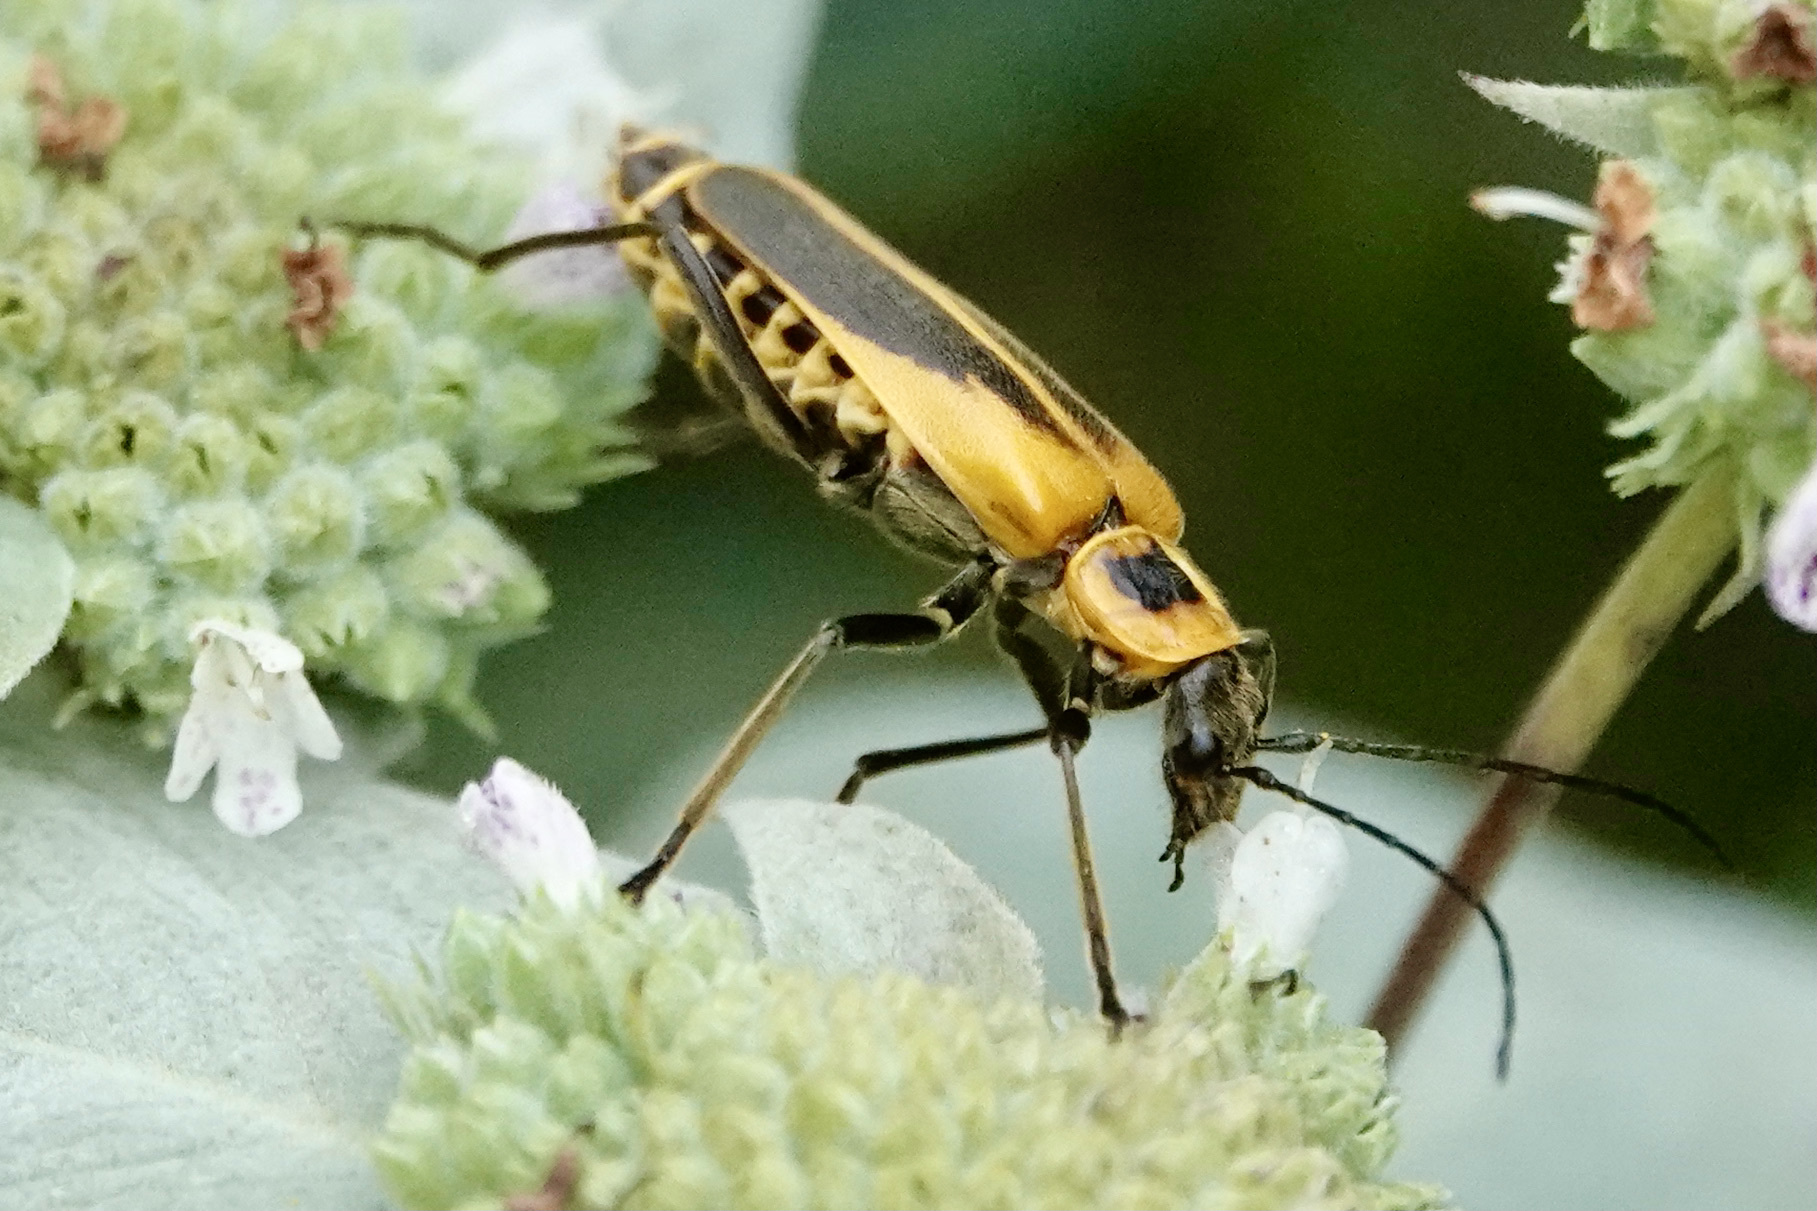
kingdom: Animalia
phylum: Arthropoda
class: Insecta
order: Coleoptera
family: Cantharidae
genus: Chauliognathus
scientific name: Chauliognathus pensylvanicus
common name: Goldenrod soldier beetle
